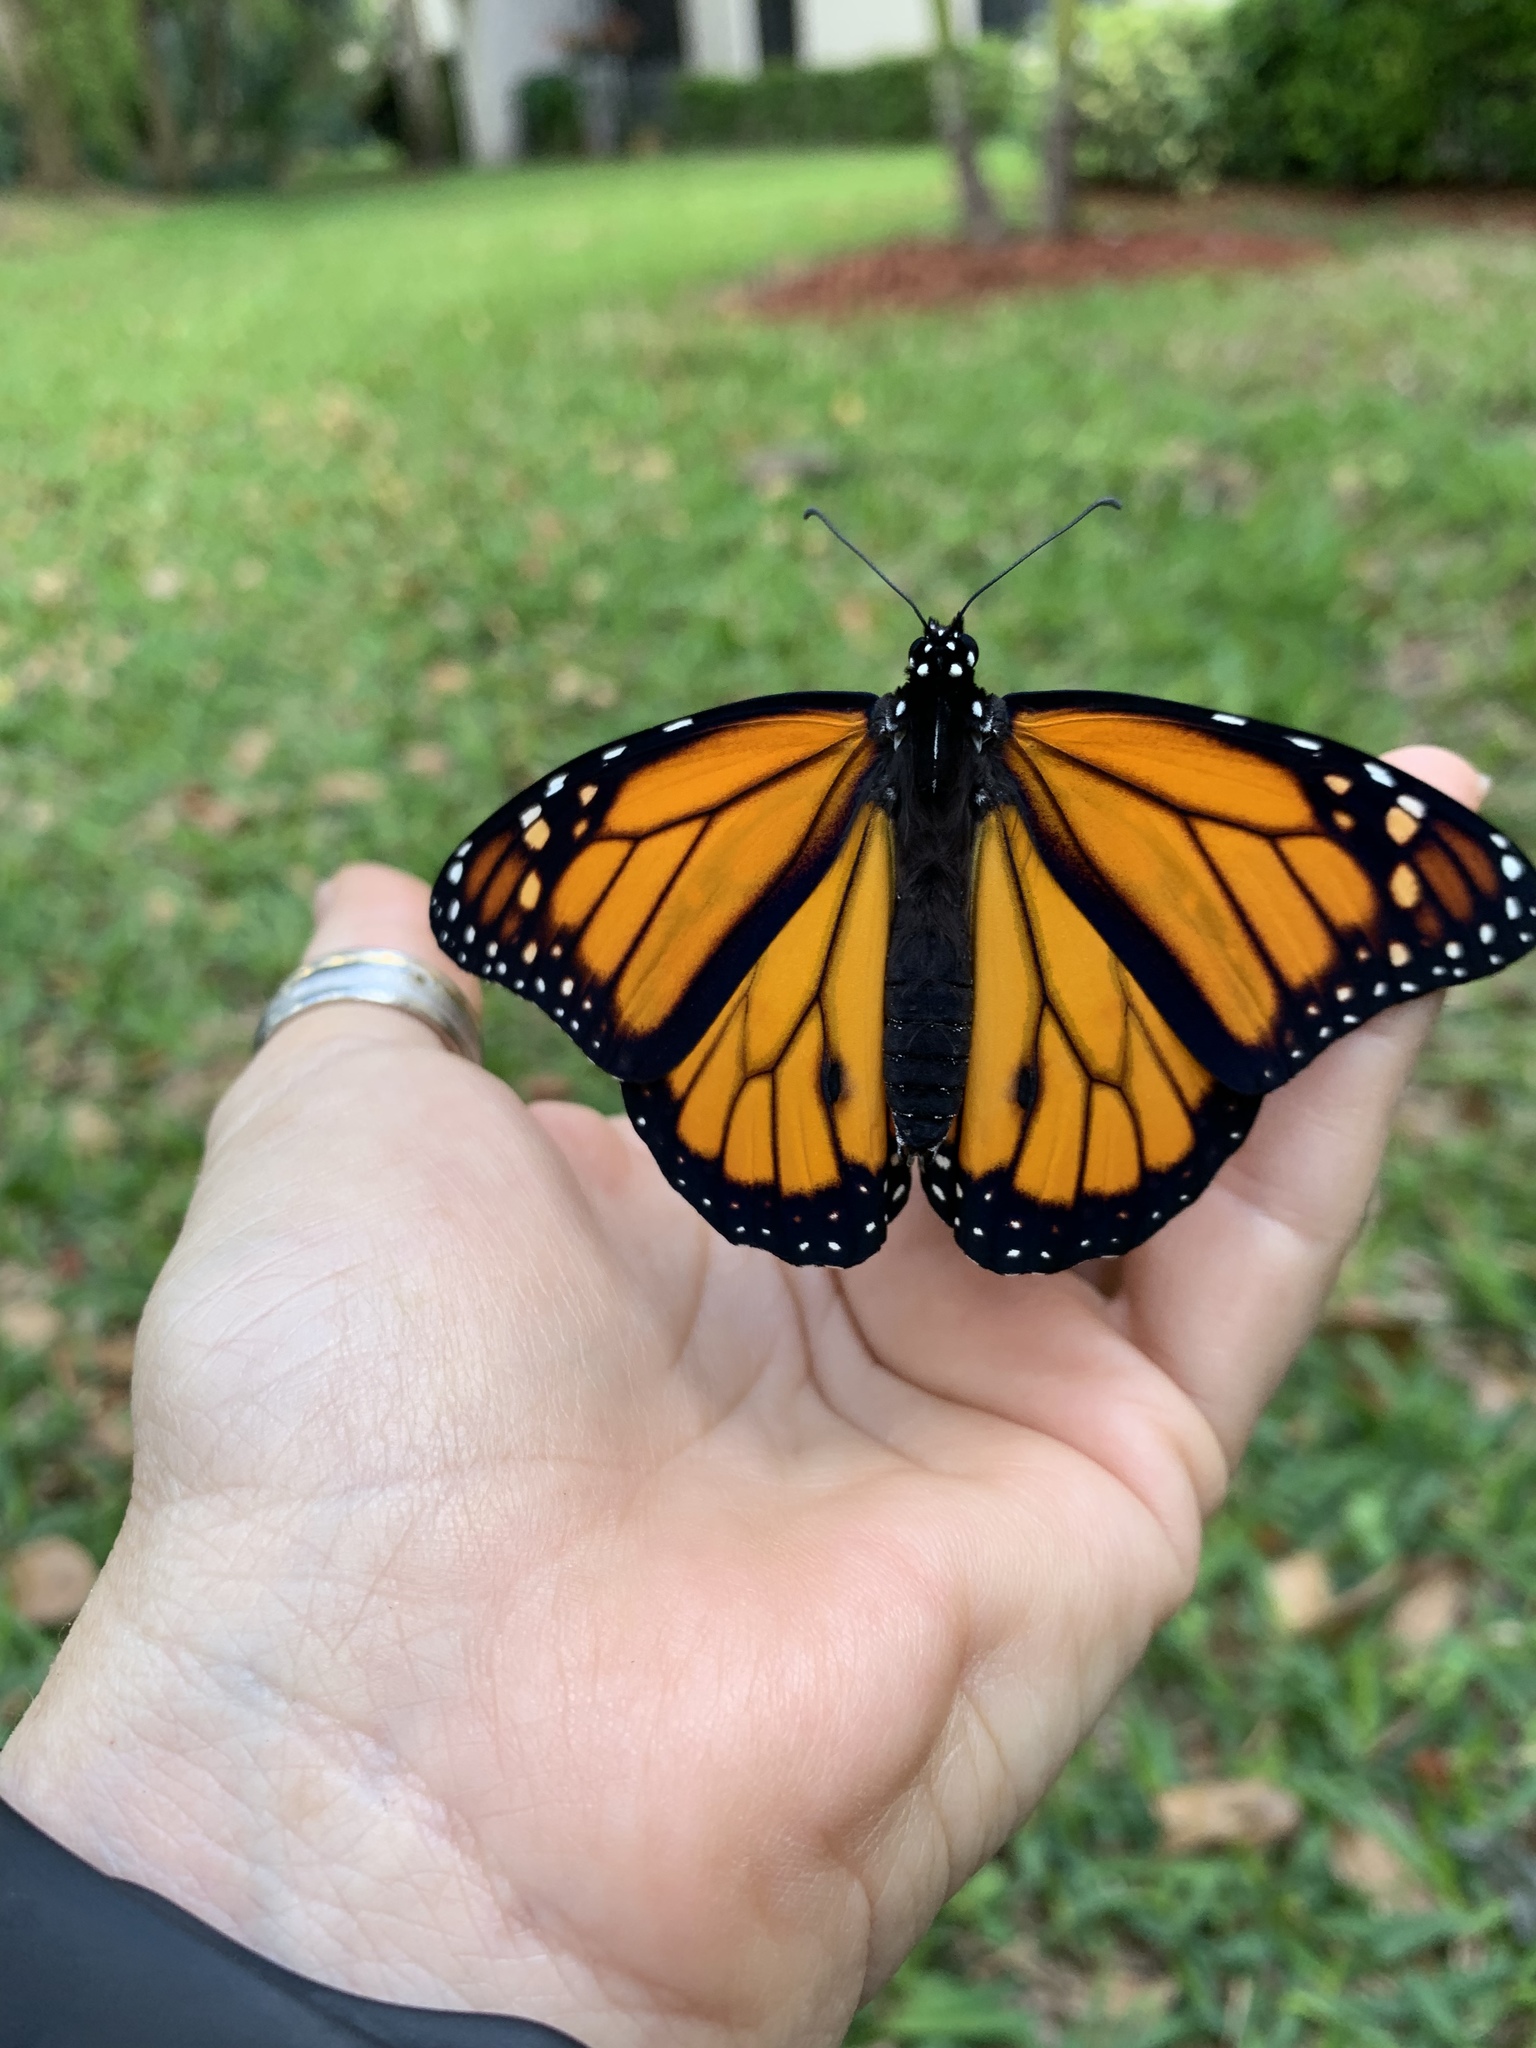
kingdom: Animalia
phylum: Arthropoda
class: Insecta
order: Lepidoptera
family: Nymphalidae
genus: Danaus
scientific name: Danaus plexippus
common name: Monarch
